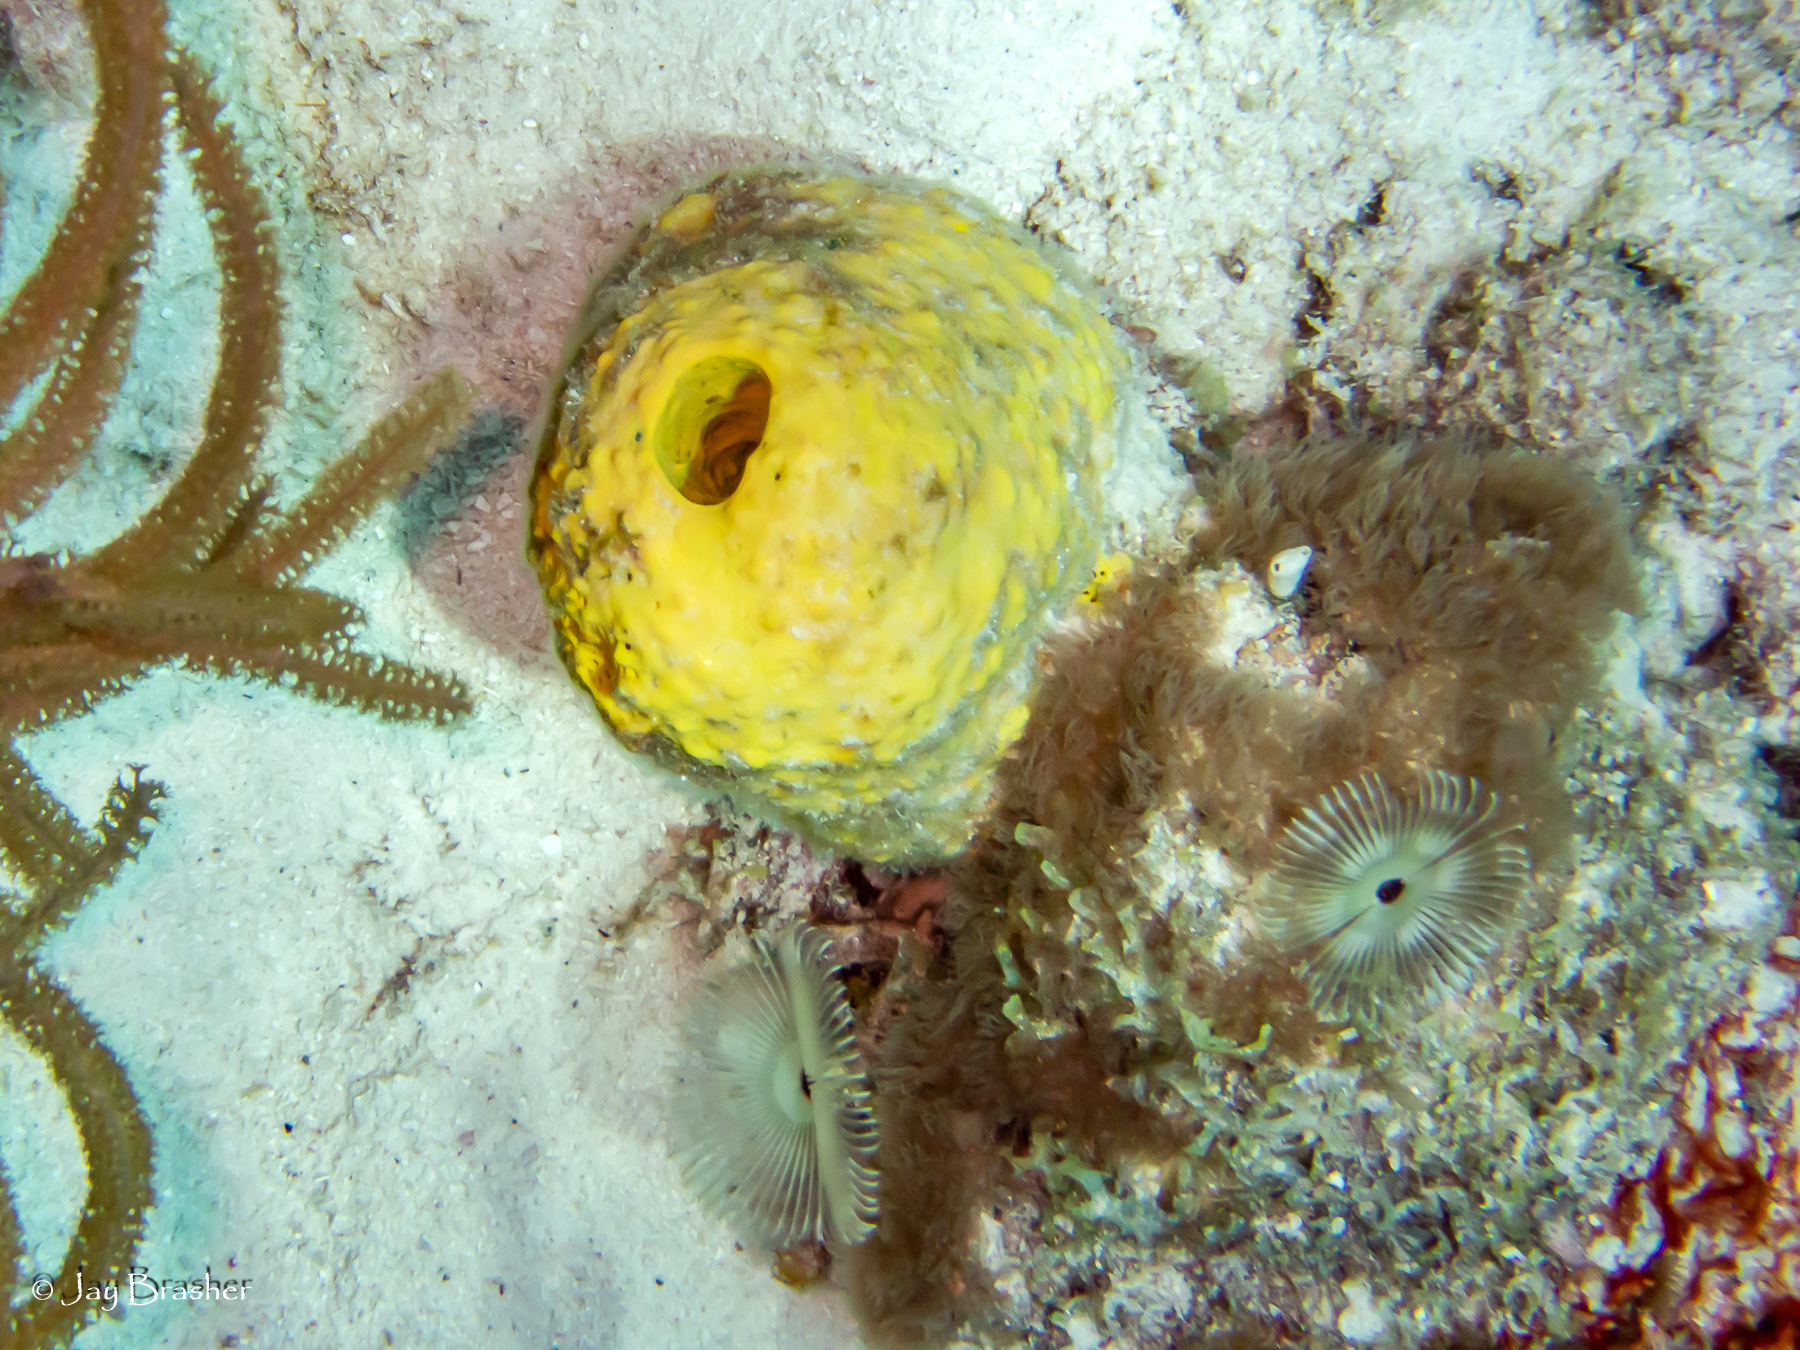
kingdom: Animalia
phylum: Porifera
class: Demospongiae
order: Verongiida
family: Aplysinidae
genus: Aiolochroia
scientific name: Aiolochroia crassa
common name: Branching tube sponge
